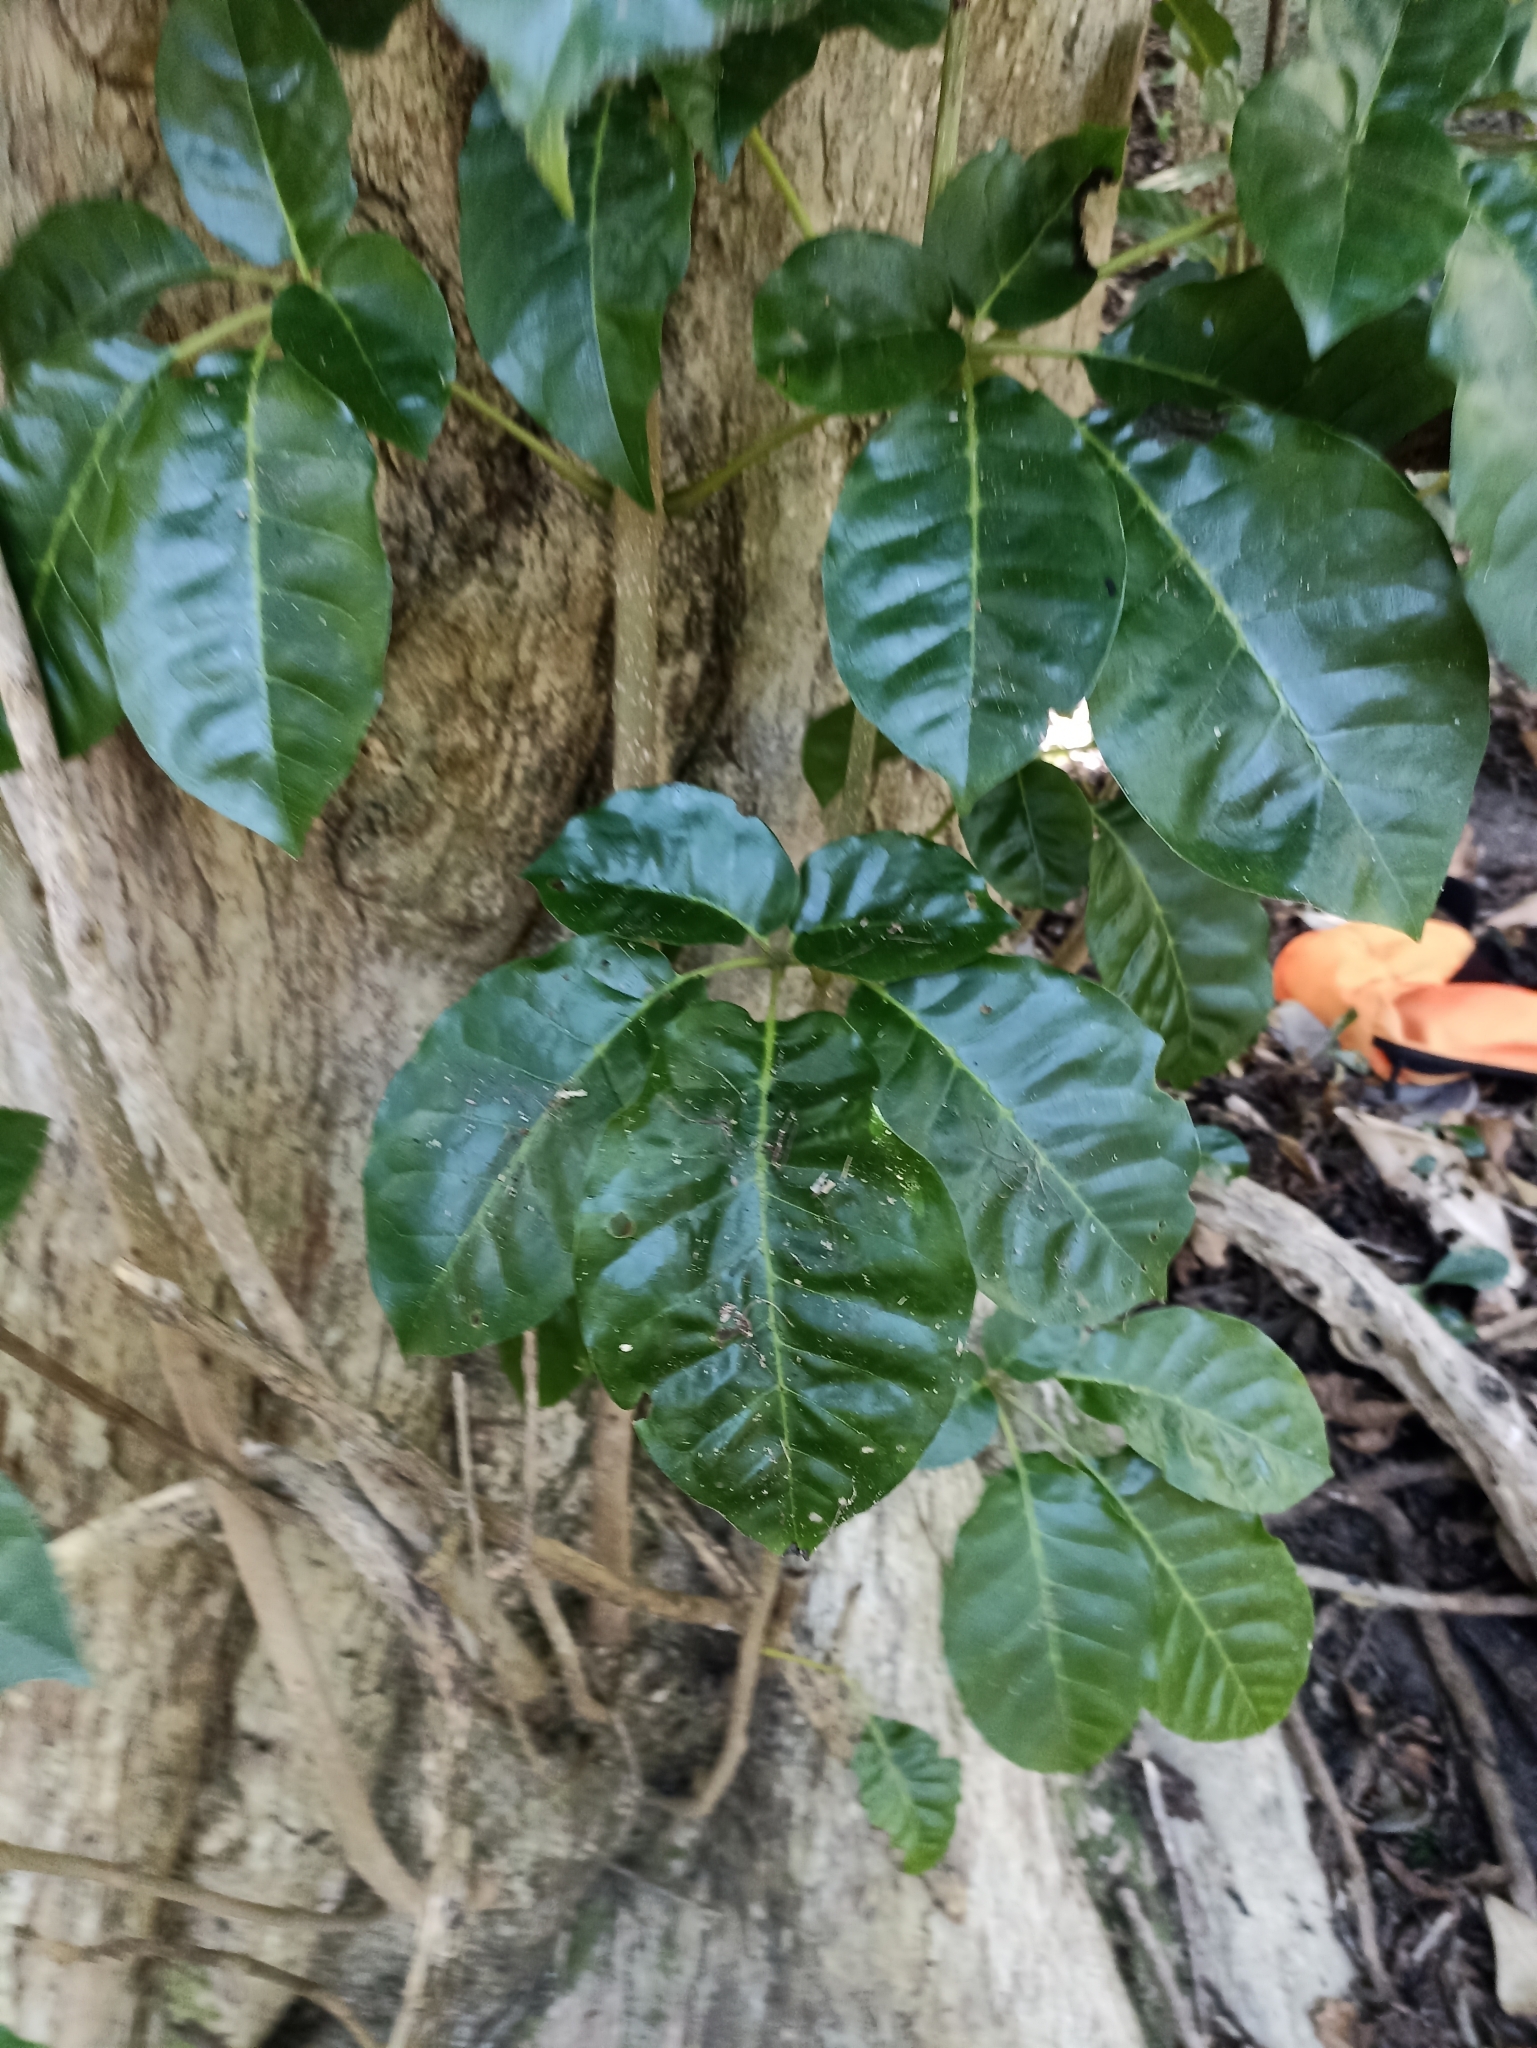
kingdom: Plantae
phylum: Tracheophyta
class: Magnoliopsida
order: Lamiales
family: Lamiaceae
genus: Vitex
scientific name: Vitex lucens
